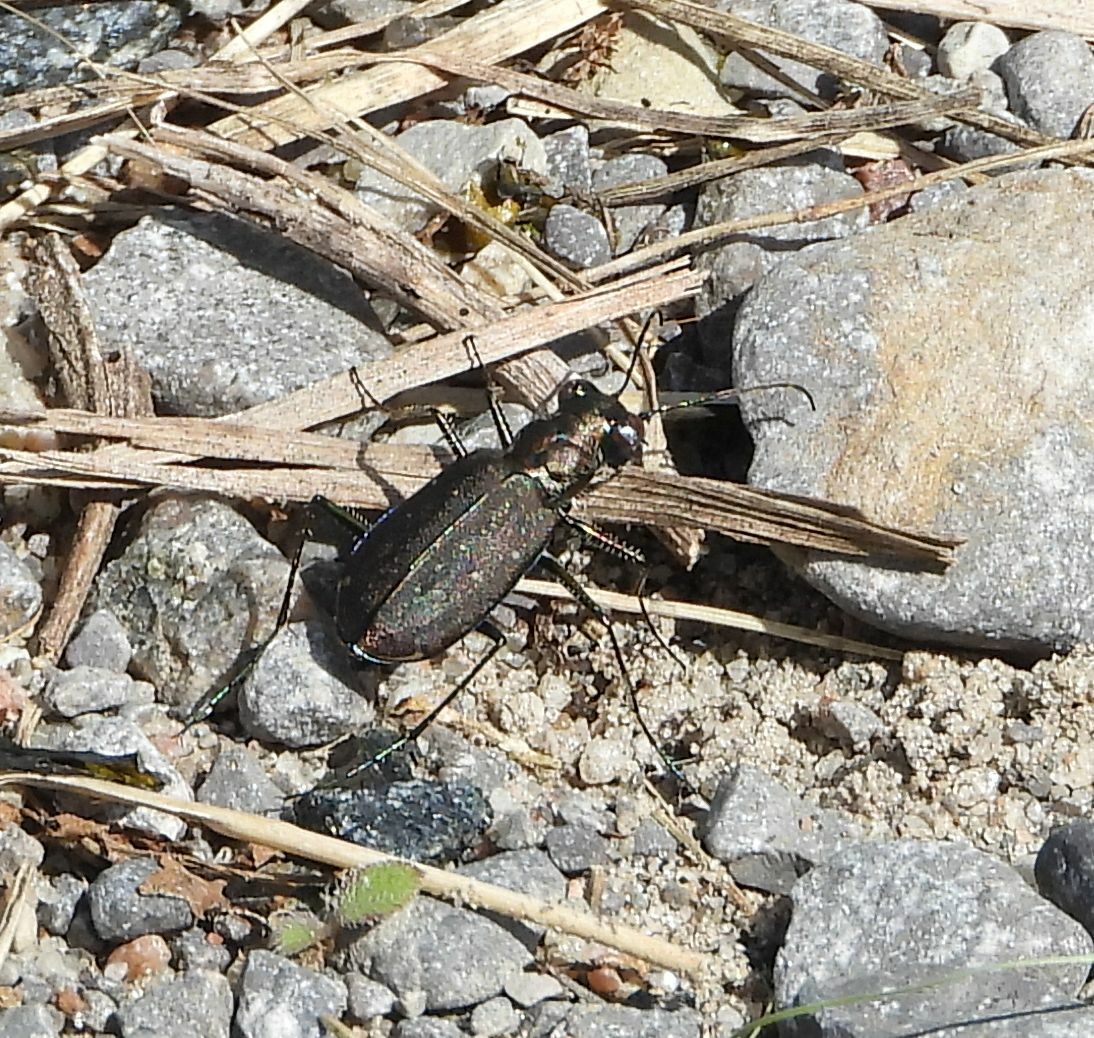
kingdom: Animalia
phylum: Arthropoda
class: Insecta
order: Coleoptera
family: Carabidae
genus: Cicindela
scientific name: Cicindela punctulata
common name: Punctured tiger beetle
